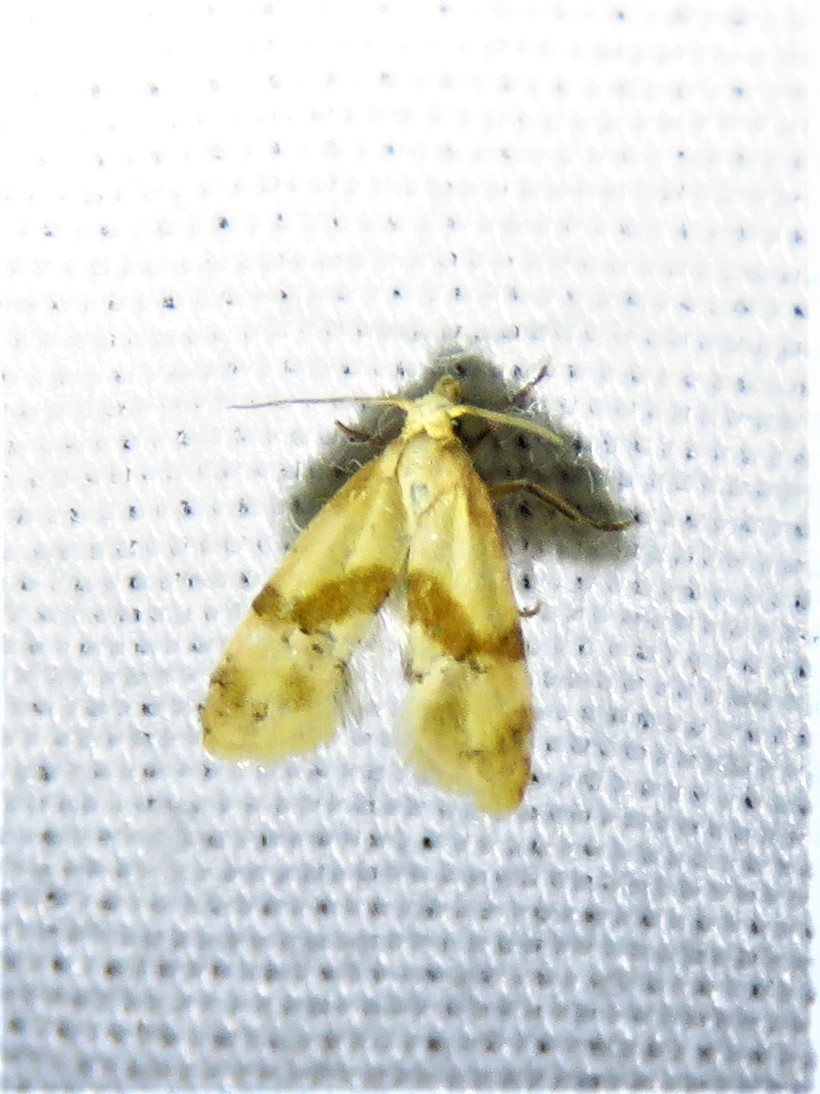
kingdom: Animalia
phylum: Arthropoda
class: Insecta
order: Lepidoptera
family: Tortricidae
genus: Cochylis
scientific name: Cochylis caulocatax
